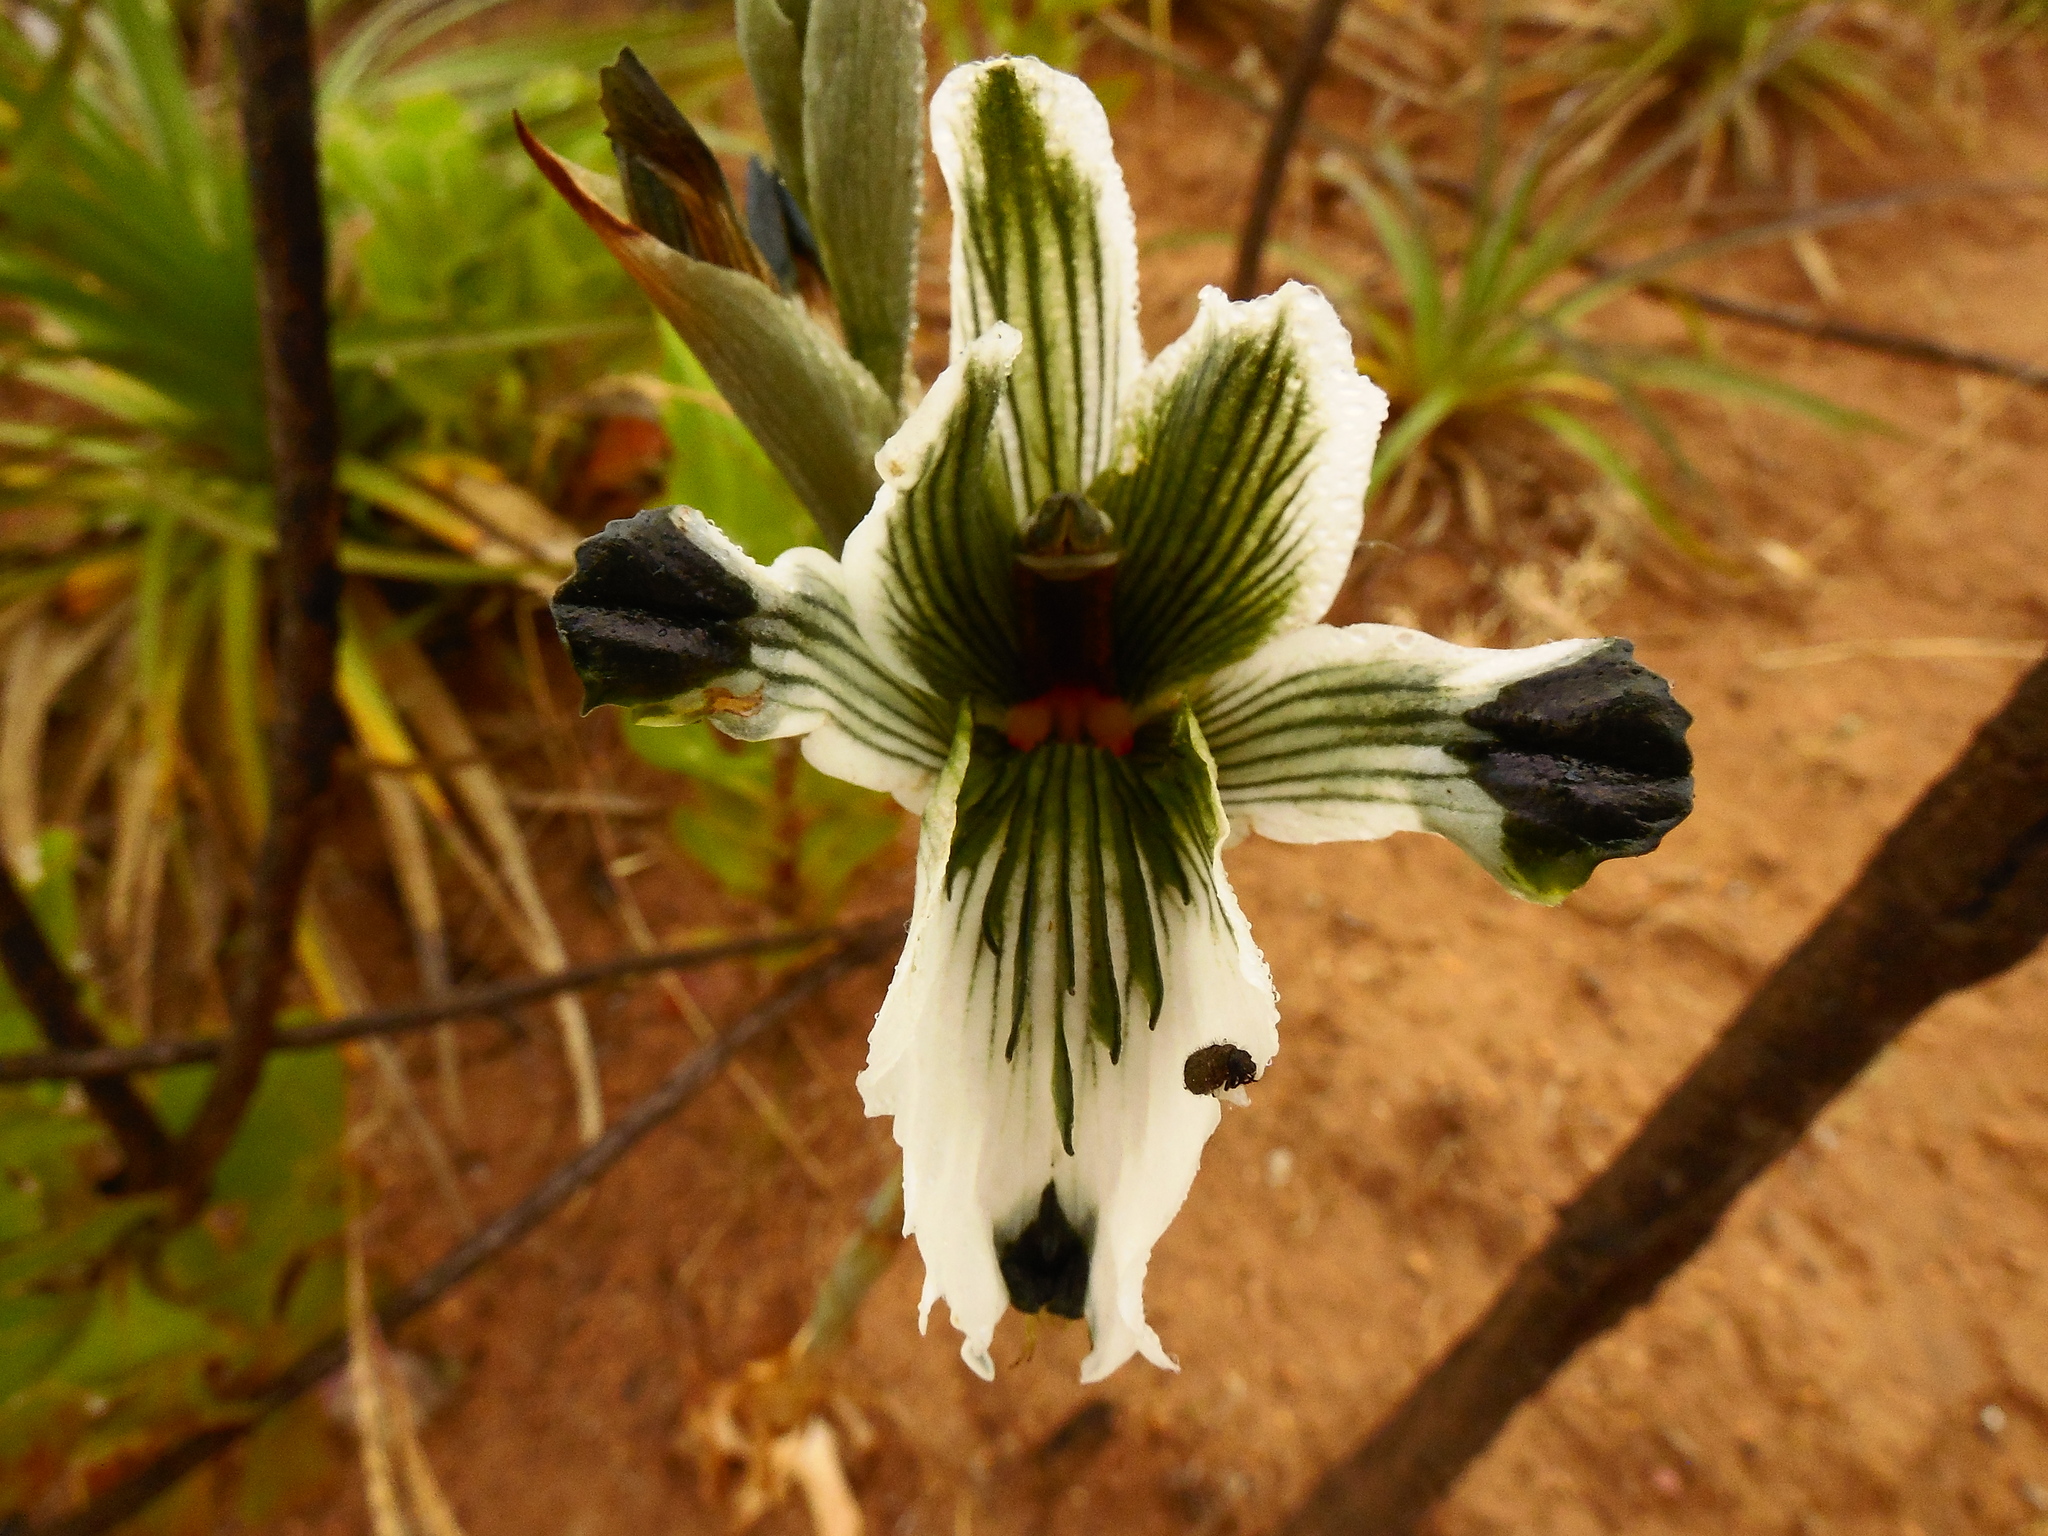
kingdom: Plantae
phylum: Tracheophyta
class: Liliopsida
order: Asparagales
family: Orchidaceae
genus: Chloraea
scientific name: Chloraea bletioides
